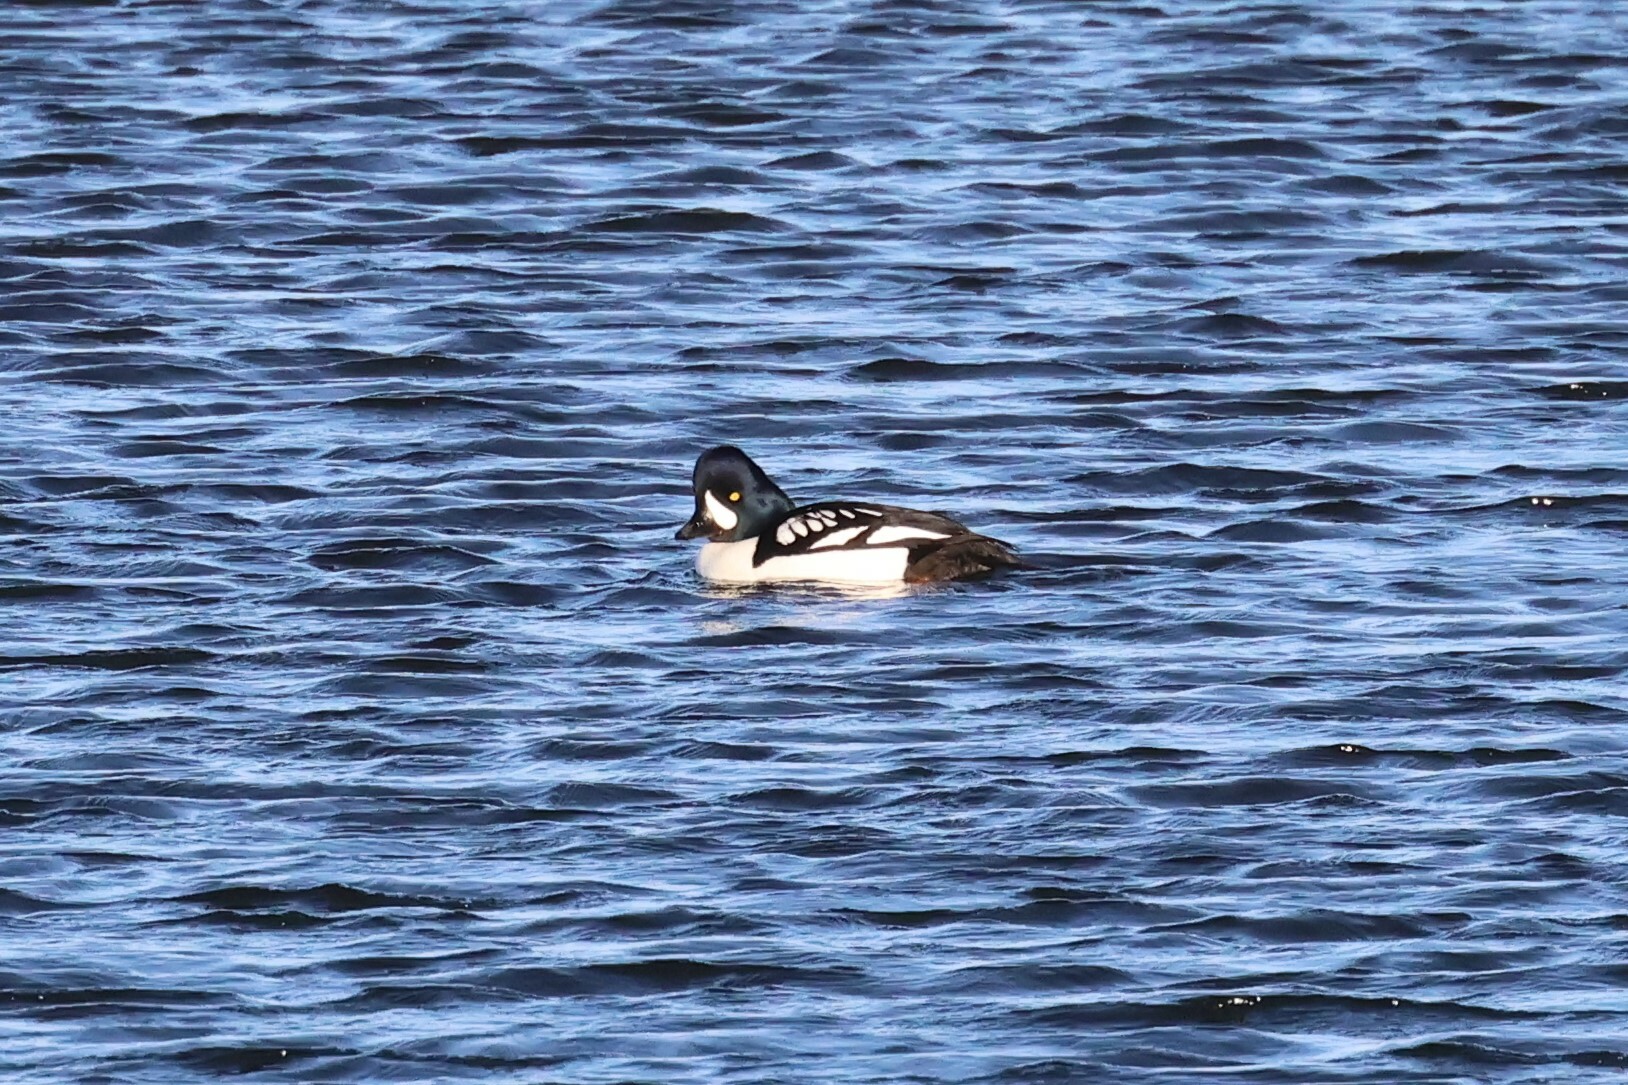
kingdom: Animalia
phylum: Chordata
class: Aves
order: Anseriformes
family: Anatidae
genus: Bucephala
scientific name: Bucephala islandica
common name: Barrow's goldeneye
